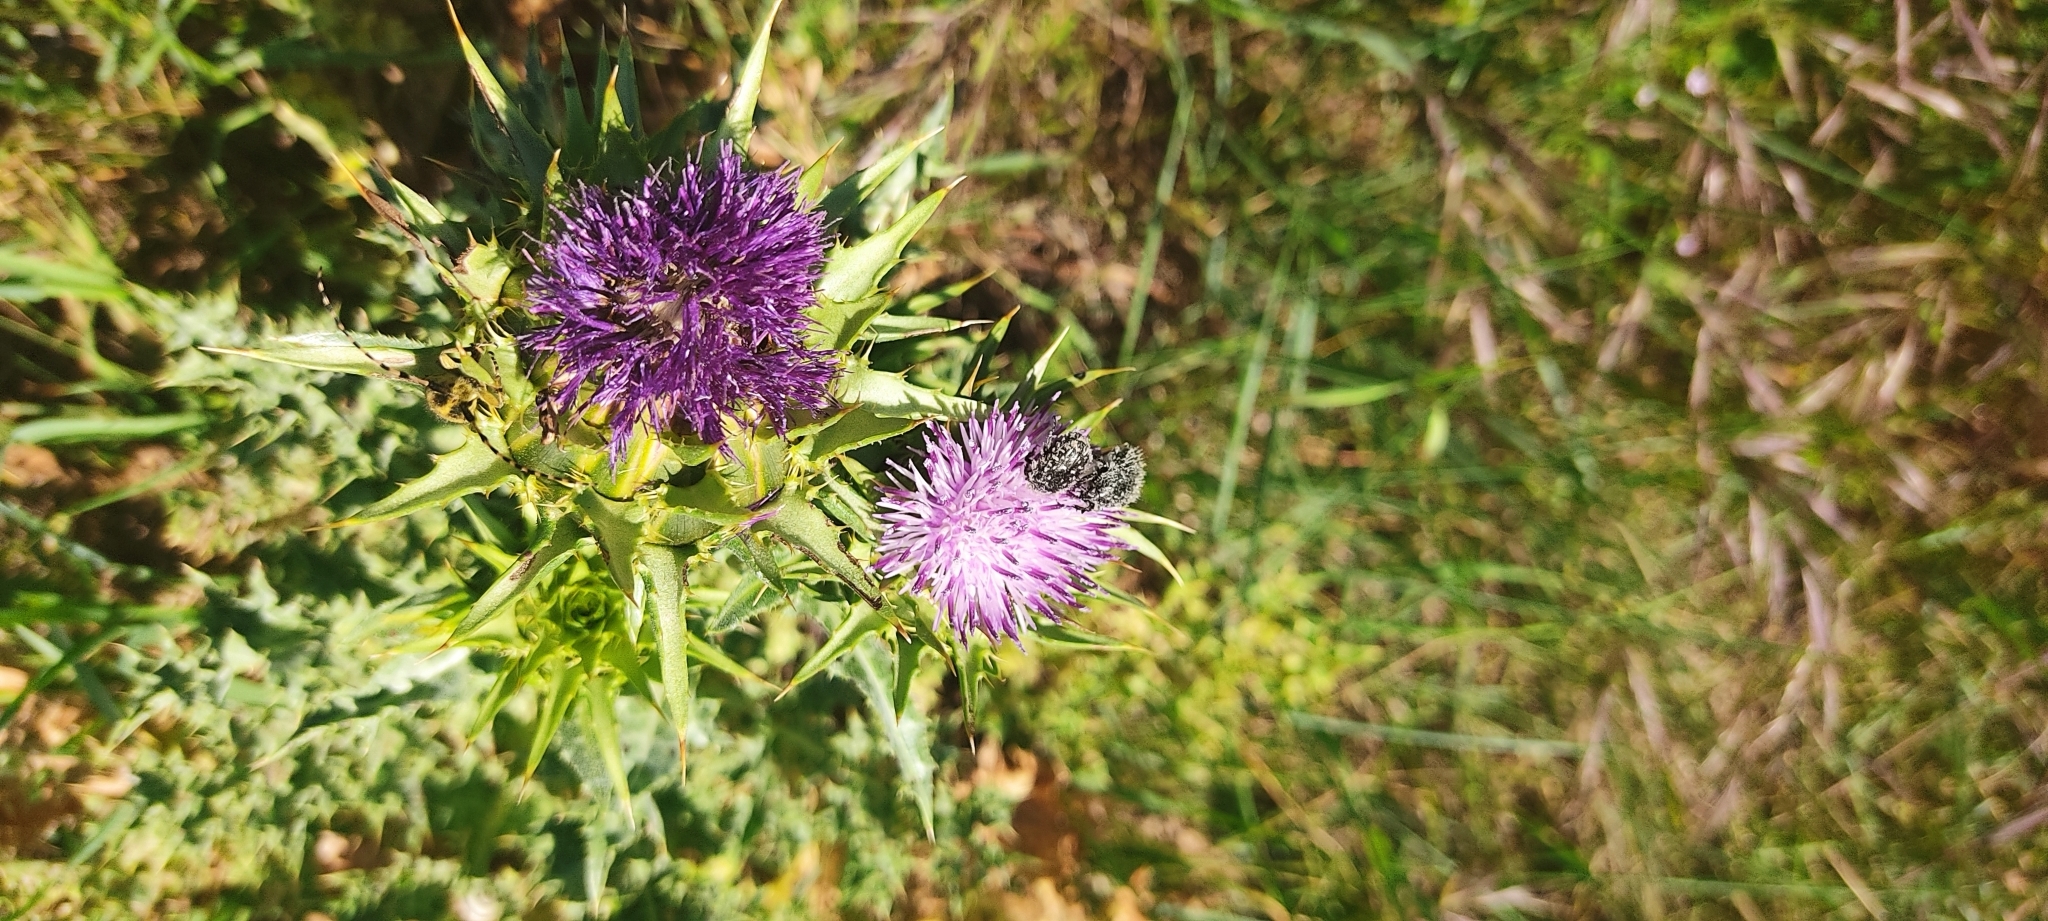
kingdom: Animalia
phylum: Arthropoda
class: Insecta
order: Coleoptera
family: Scarabaeidae
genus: Oxythyrea
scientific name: Oxythyrea funesta
